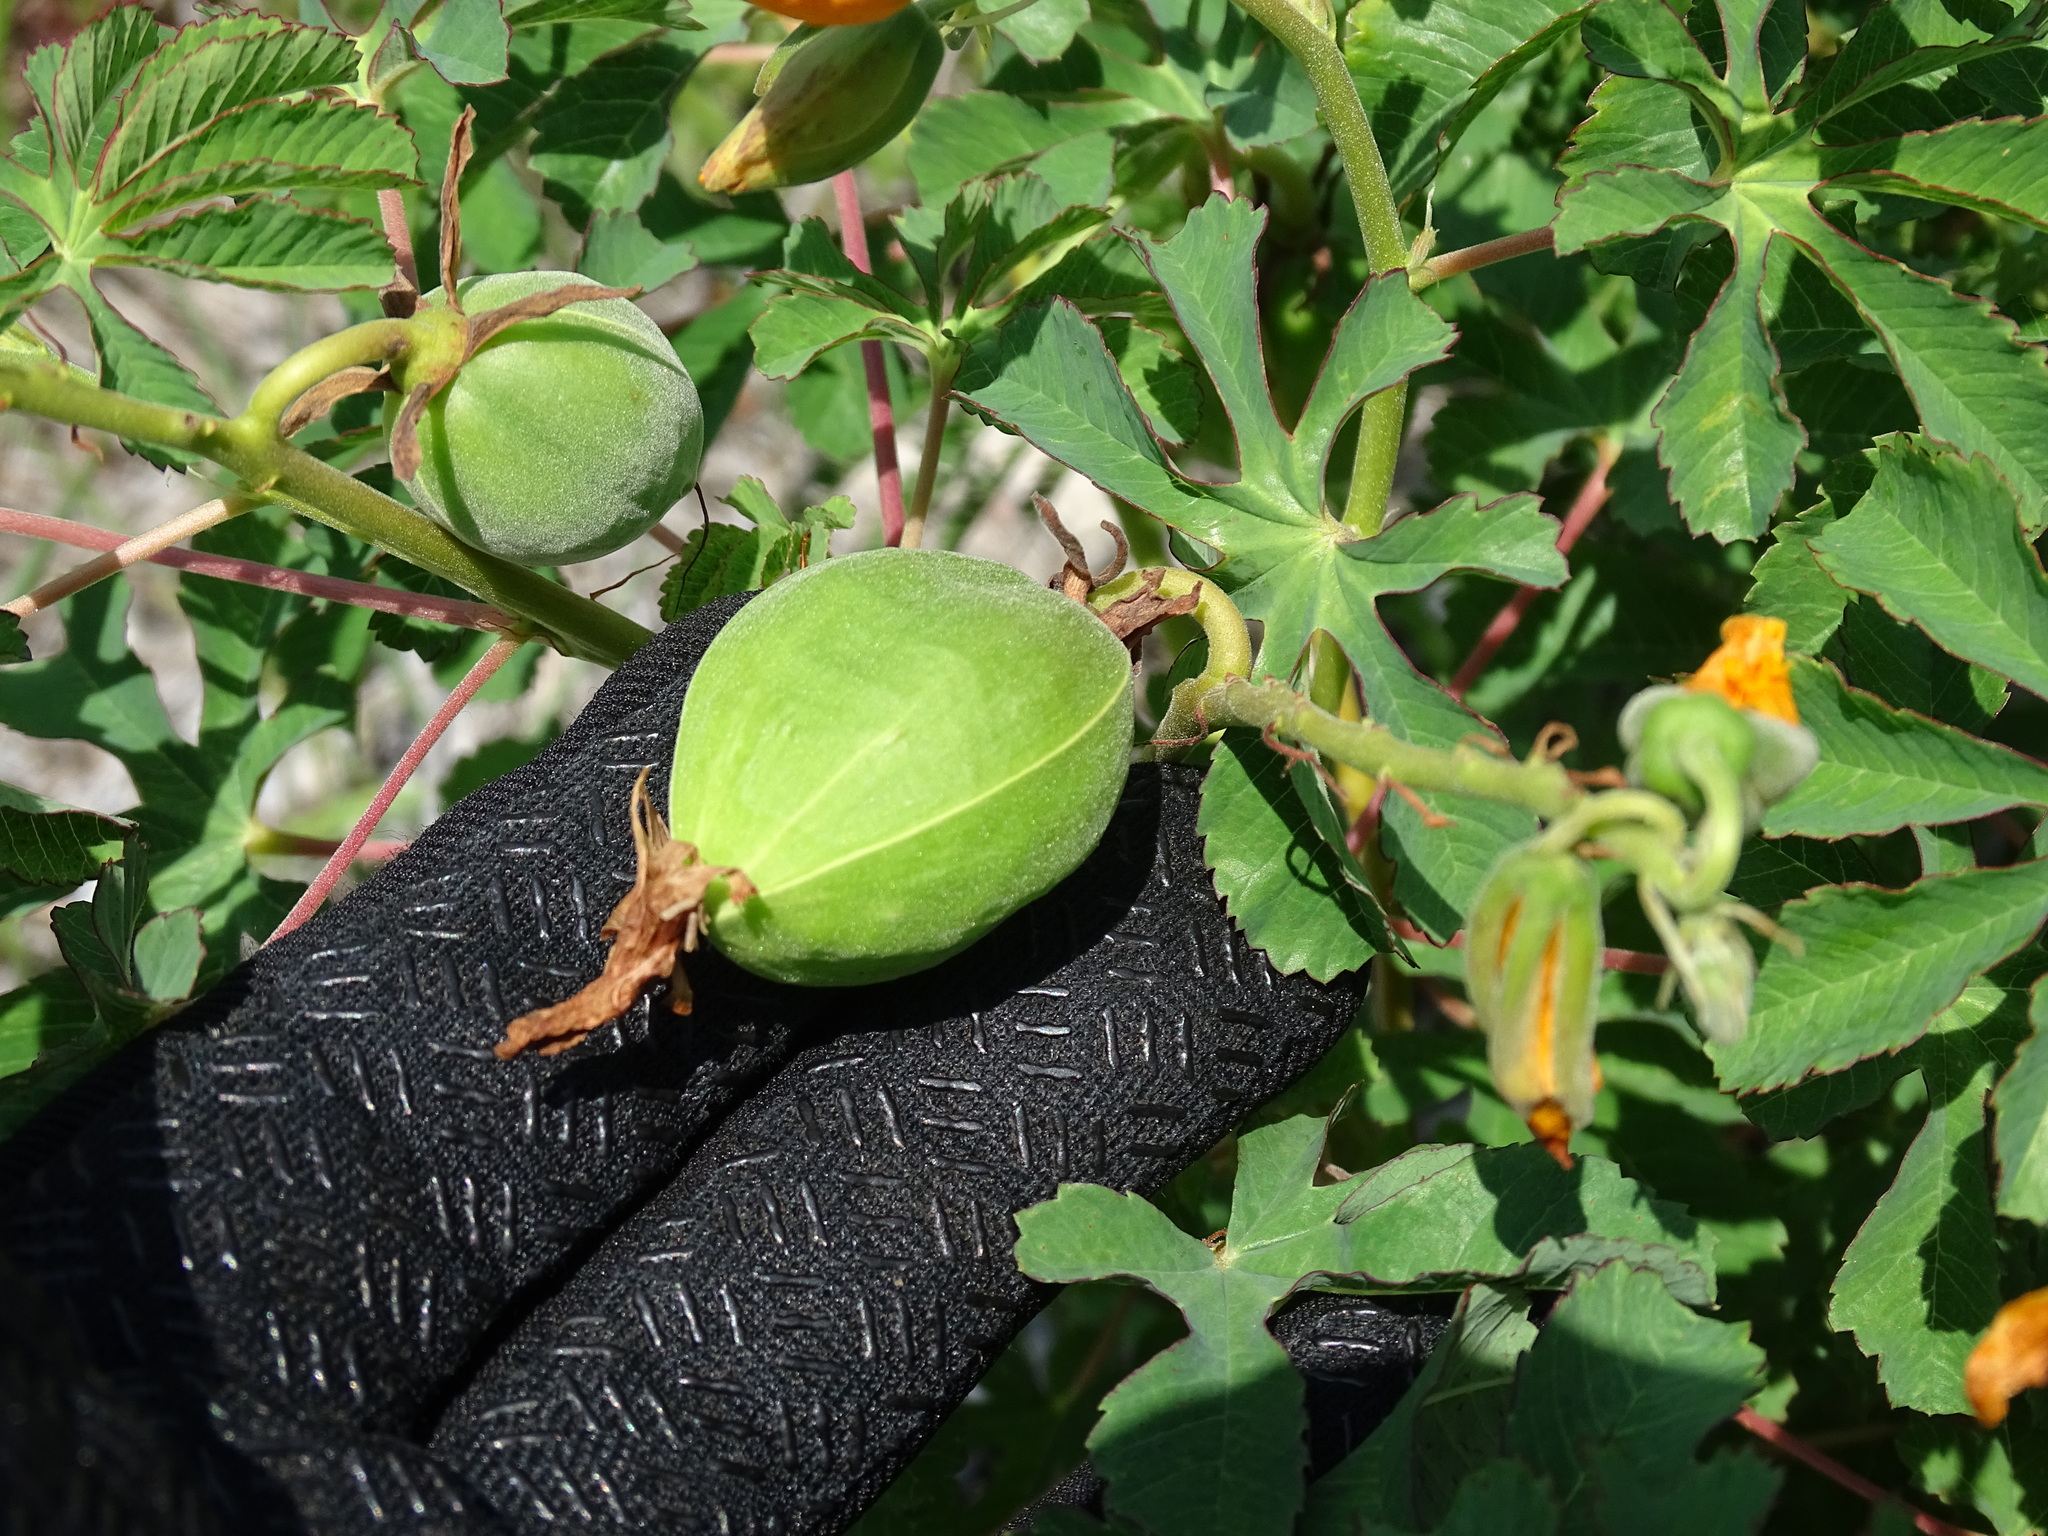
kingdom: Plantae
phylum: Tracheophyta
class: Magnoliopsida
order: Malvales
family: Cochlospermaceae
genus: Cochlospermum
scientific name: Cochlospermum wrightii
